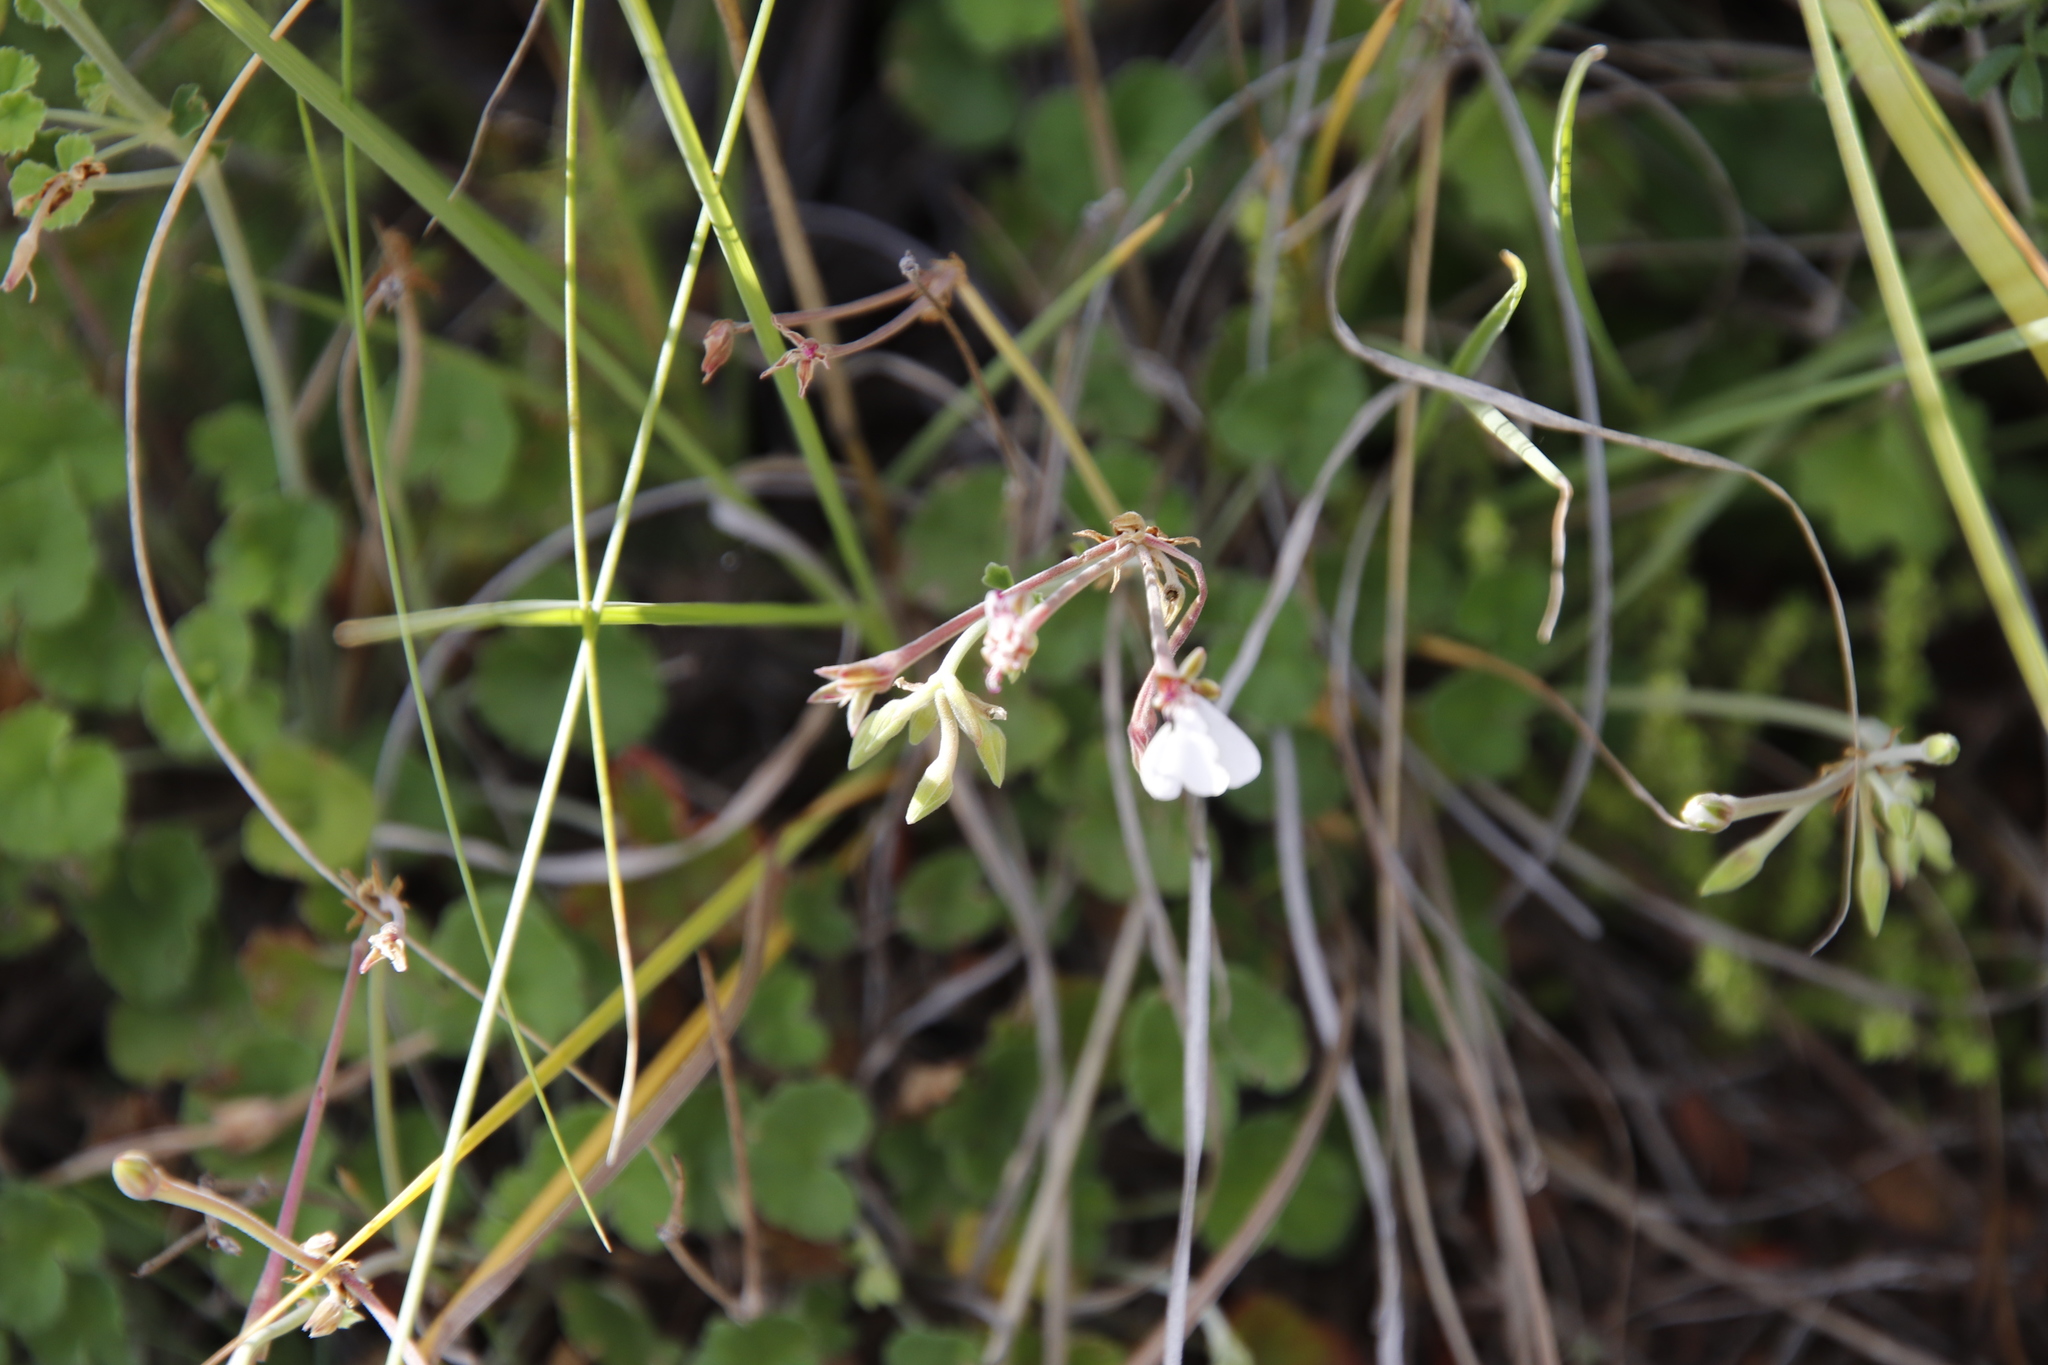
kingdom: Plantae
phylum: Tracheophyta
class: Magnoliopsida
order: Geraniales
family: Geraniaceae
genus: Pelargonium
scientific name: Pelargonium dichondrifolium
